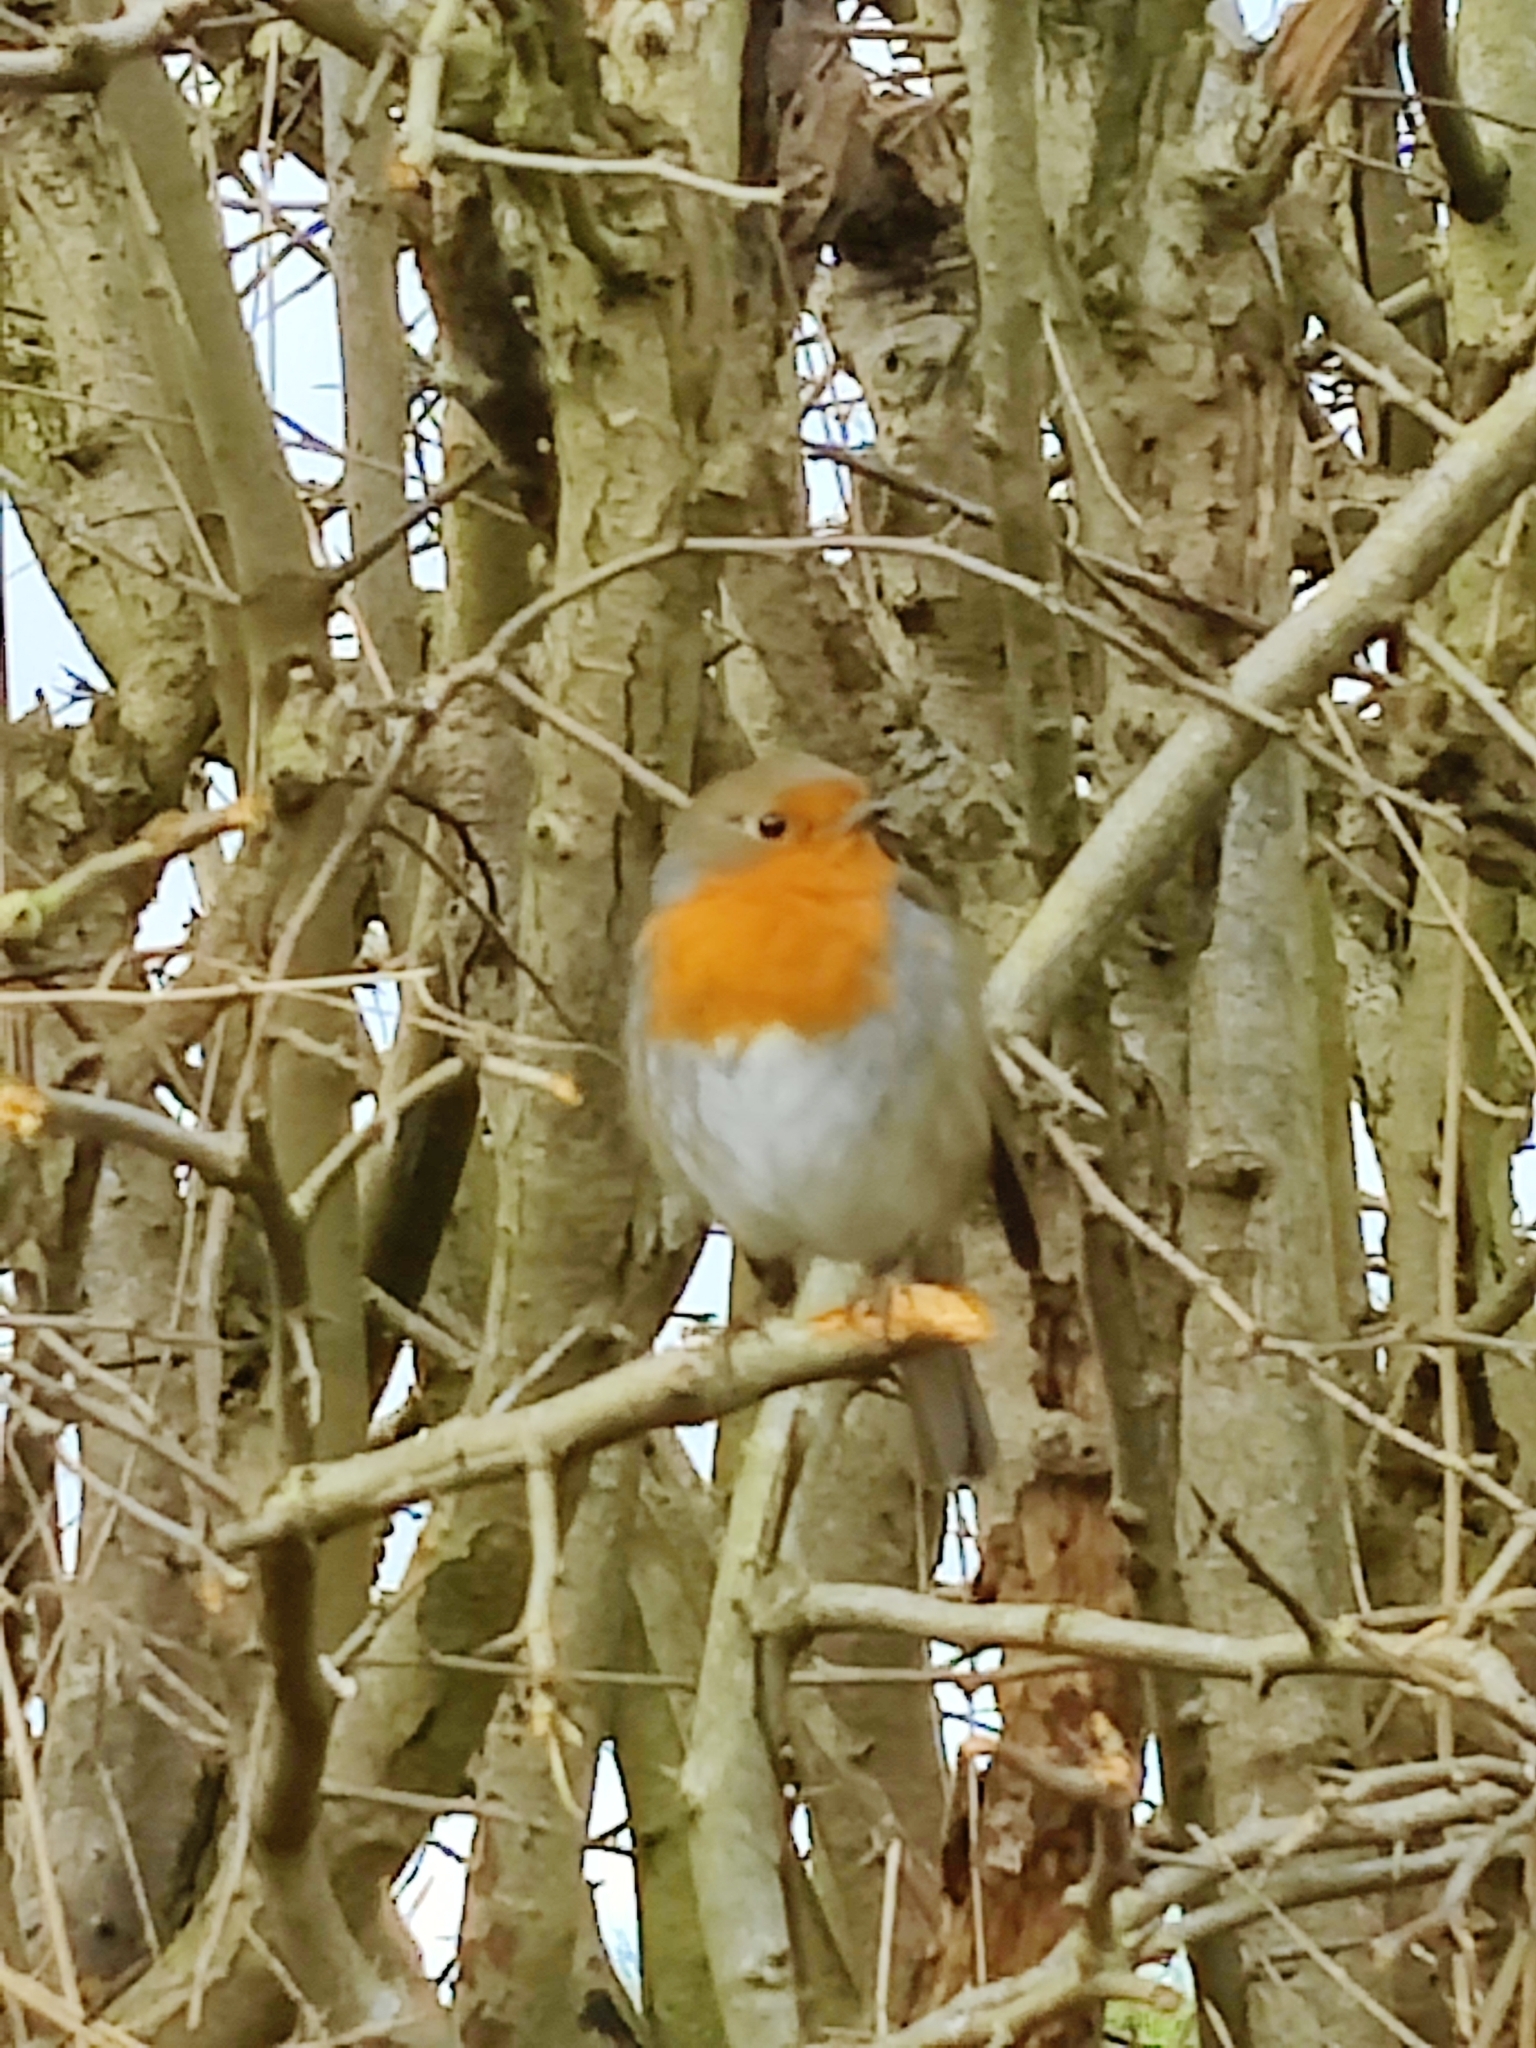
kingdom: Animalia
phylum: Chordata
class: Aves
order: Passeriformes
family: Muscicapidae
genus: Erithacus
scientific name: Erithacus rubecula
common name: European robin
